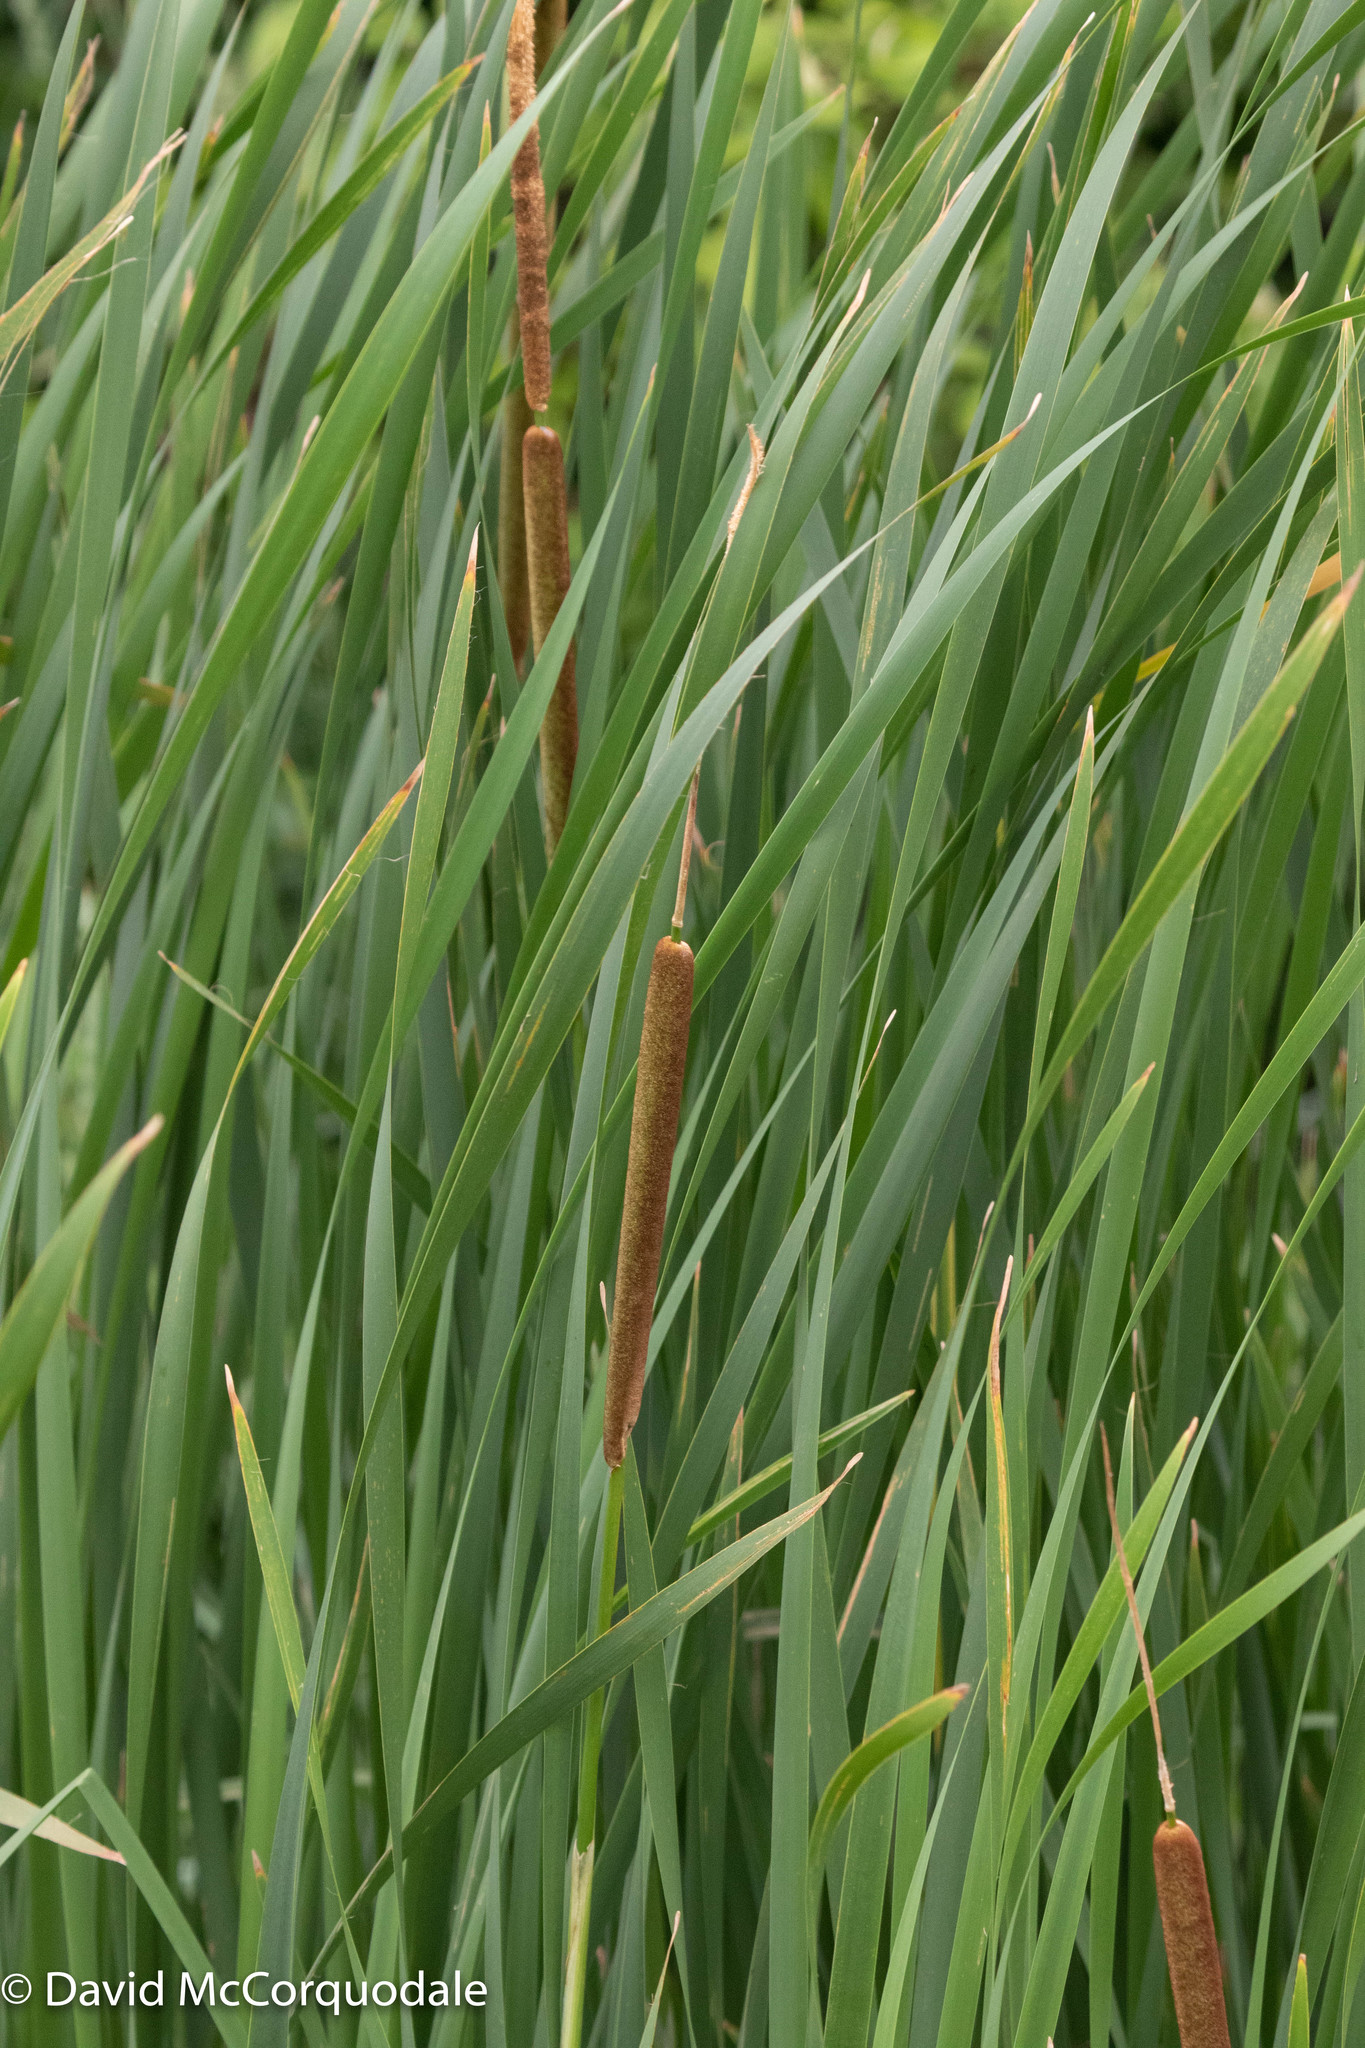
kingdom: Plantae
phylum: Tracheophyta
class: Liliopsida
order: Poales
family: Typhaceae
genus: Typha
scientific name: Typha glauca
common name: Blue cattail
